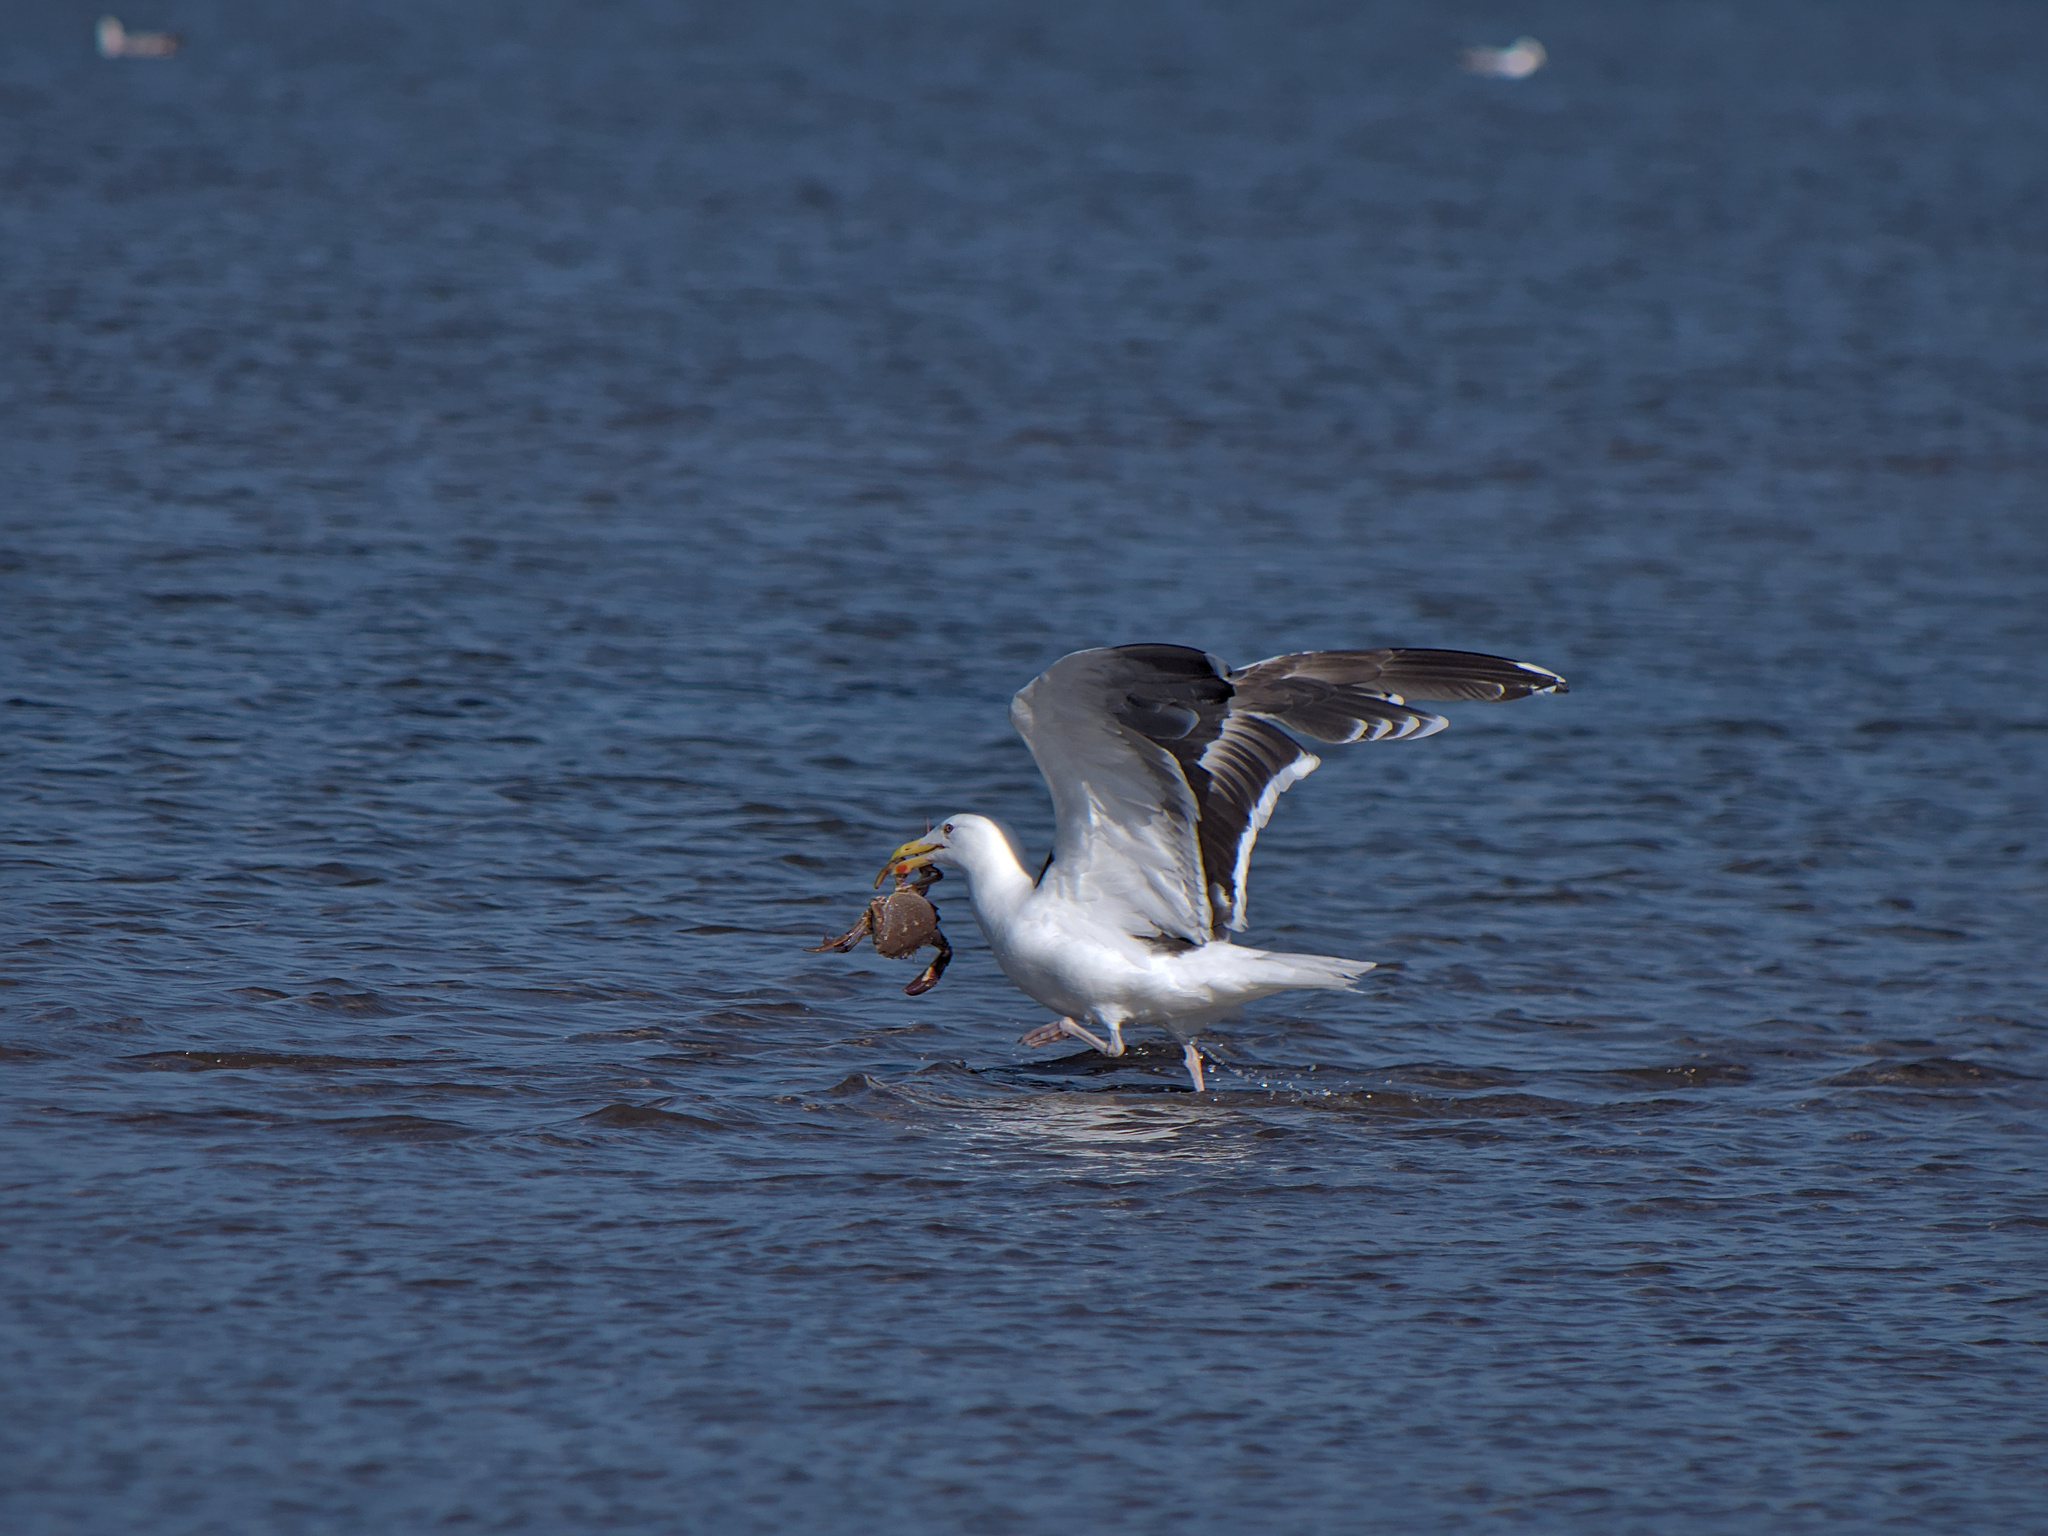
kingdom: Animalia
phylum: Arthropoda
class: Malacostraca
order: Decapoda
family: Ovalipidae
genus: Ovalipes
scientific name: Ovalipes ocellatus
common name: Lady crab
